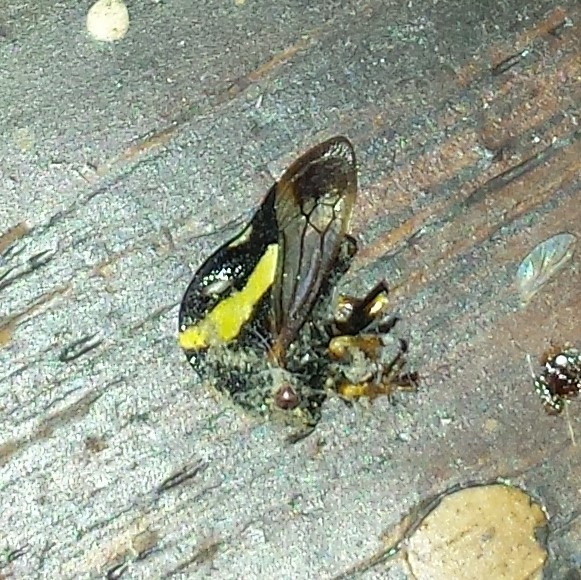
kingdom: Animalia
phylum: Arthropoda
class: Insecta
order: Hemiptera
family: Membracidae
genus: Smilia
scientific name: Smilia fasciata
